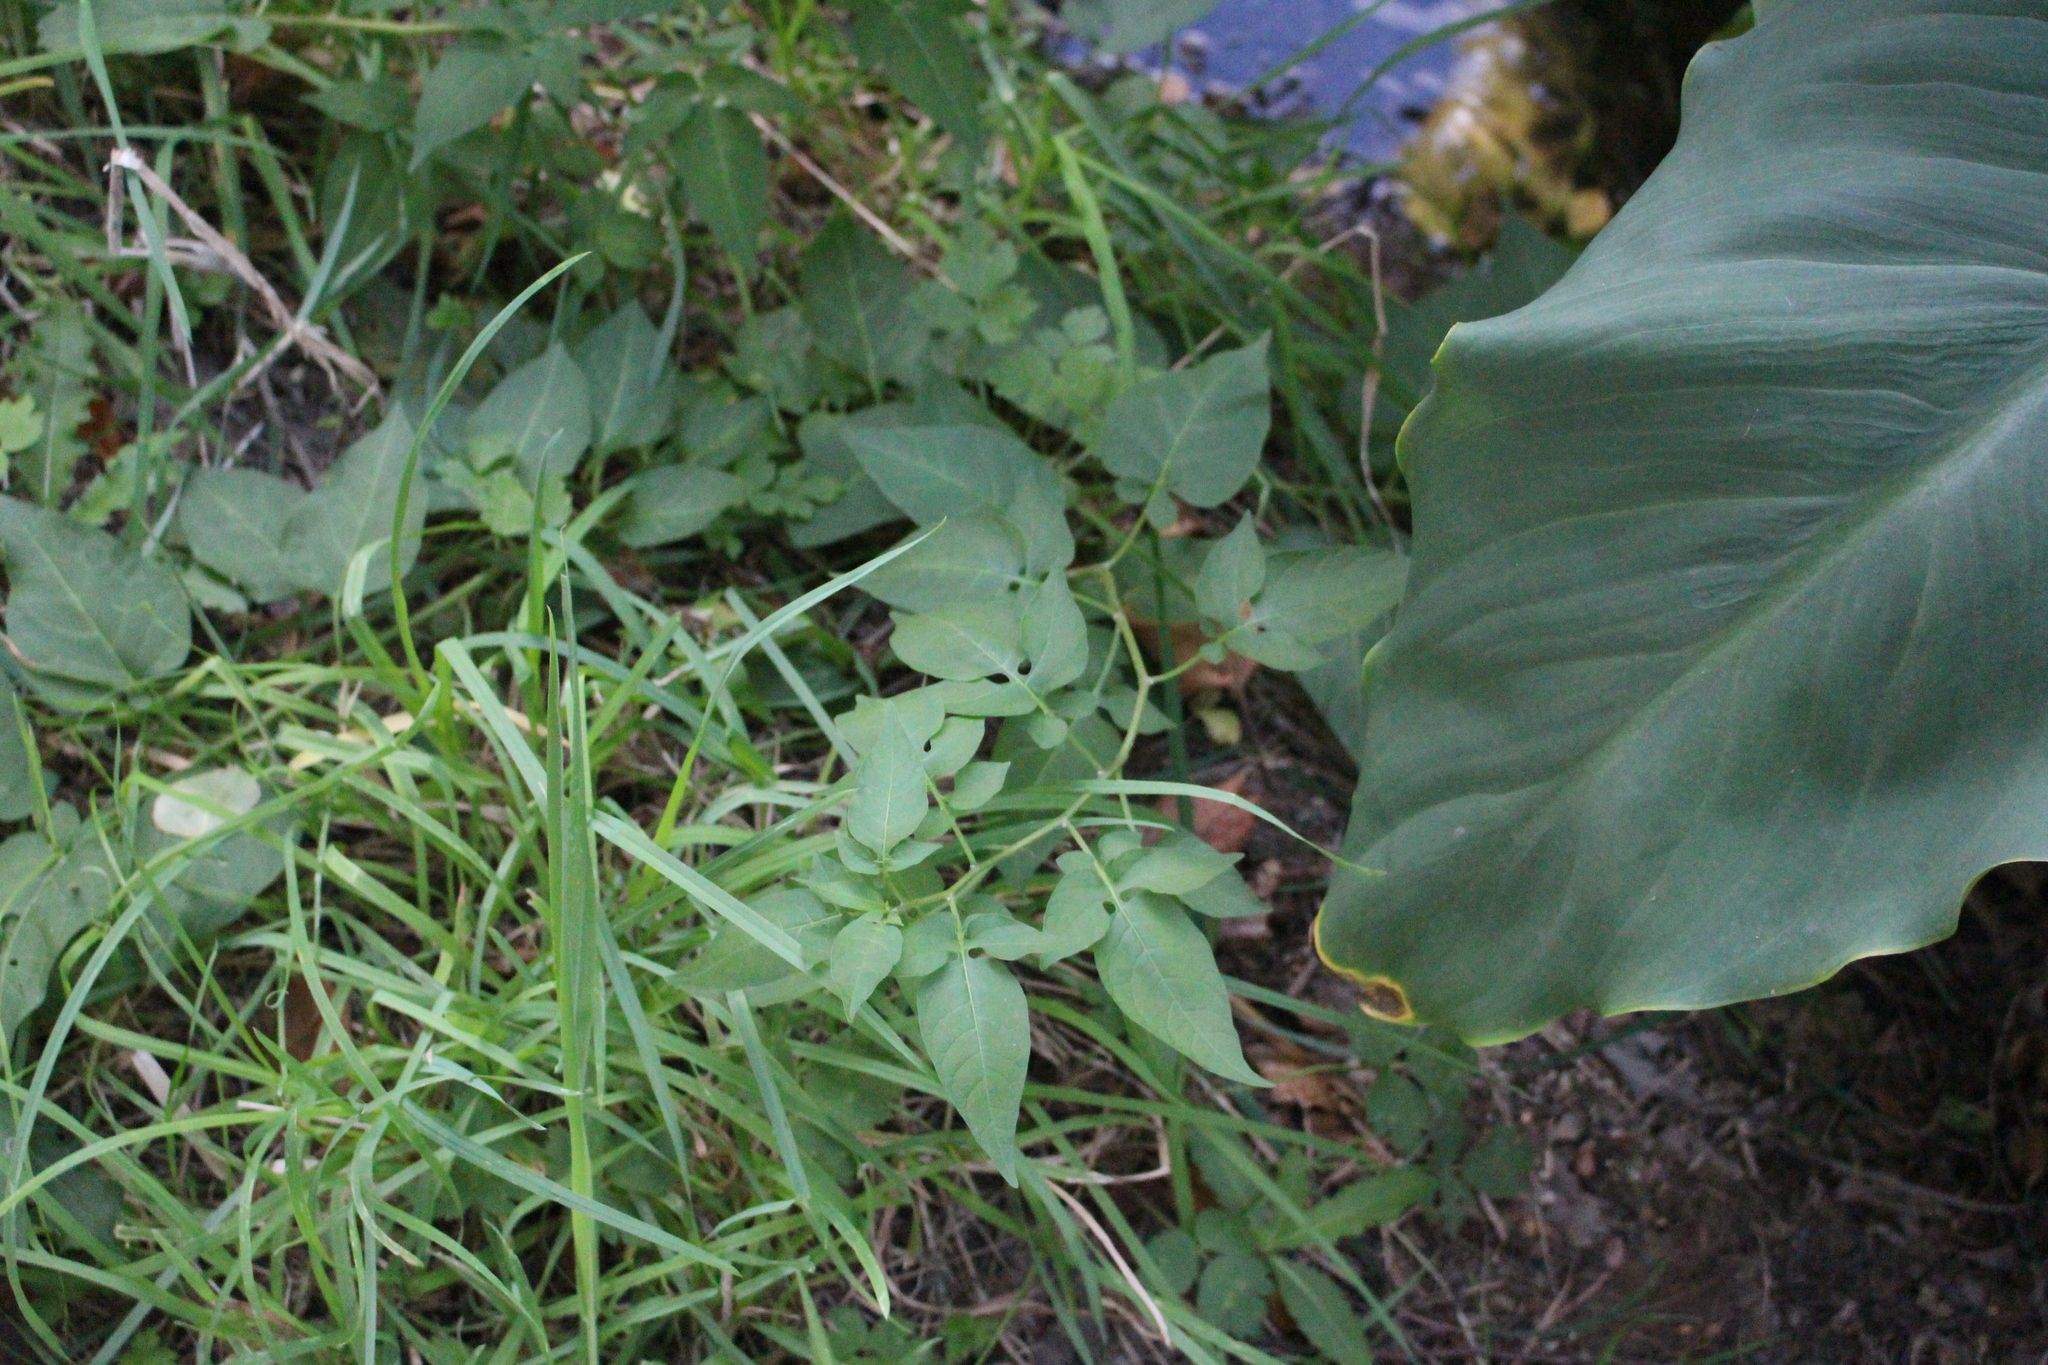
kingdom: Plantae
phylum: Tracheophyta
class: Magnoliopsida
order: Solanales
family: Solanaceae
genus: Solanum
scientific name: Solanum dulcamara
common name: Climbing nightshade
